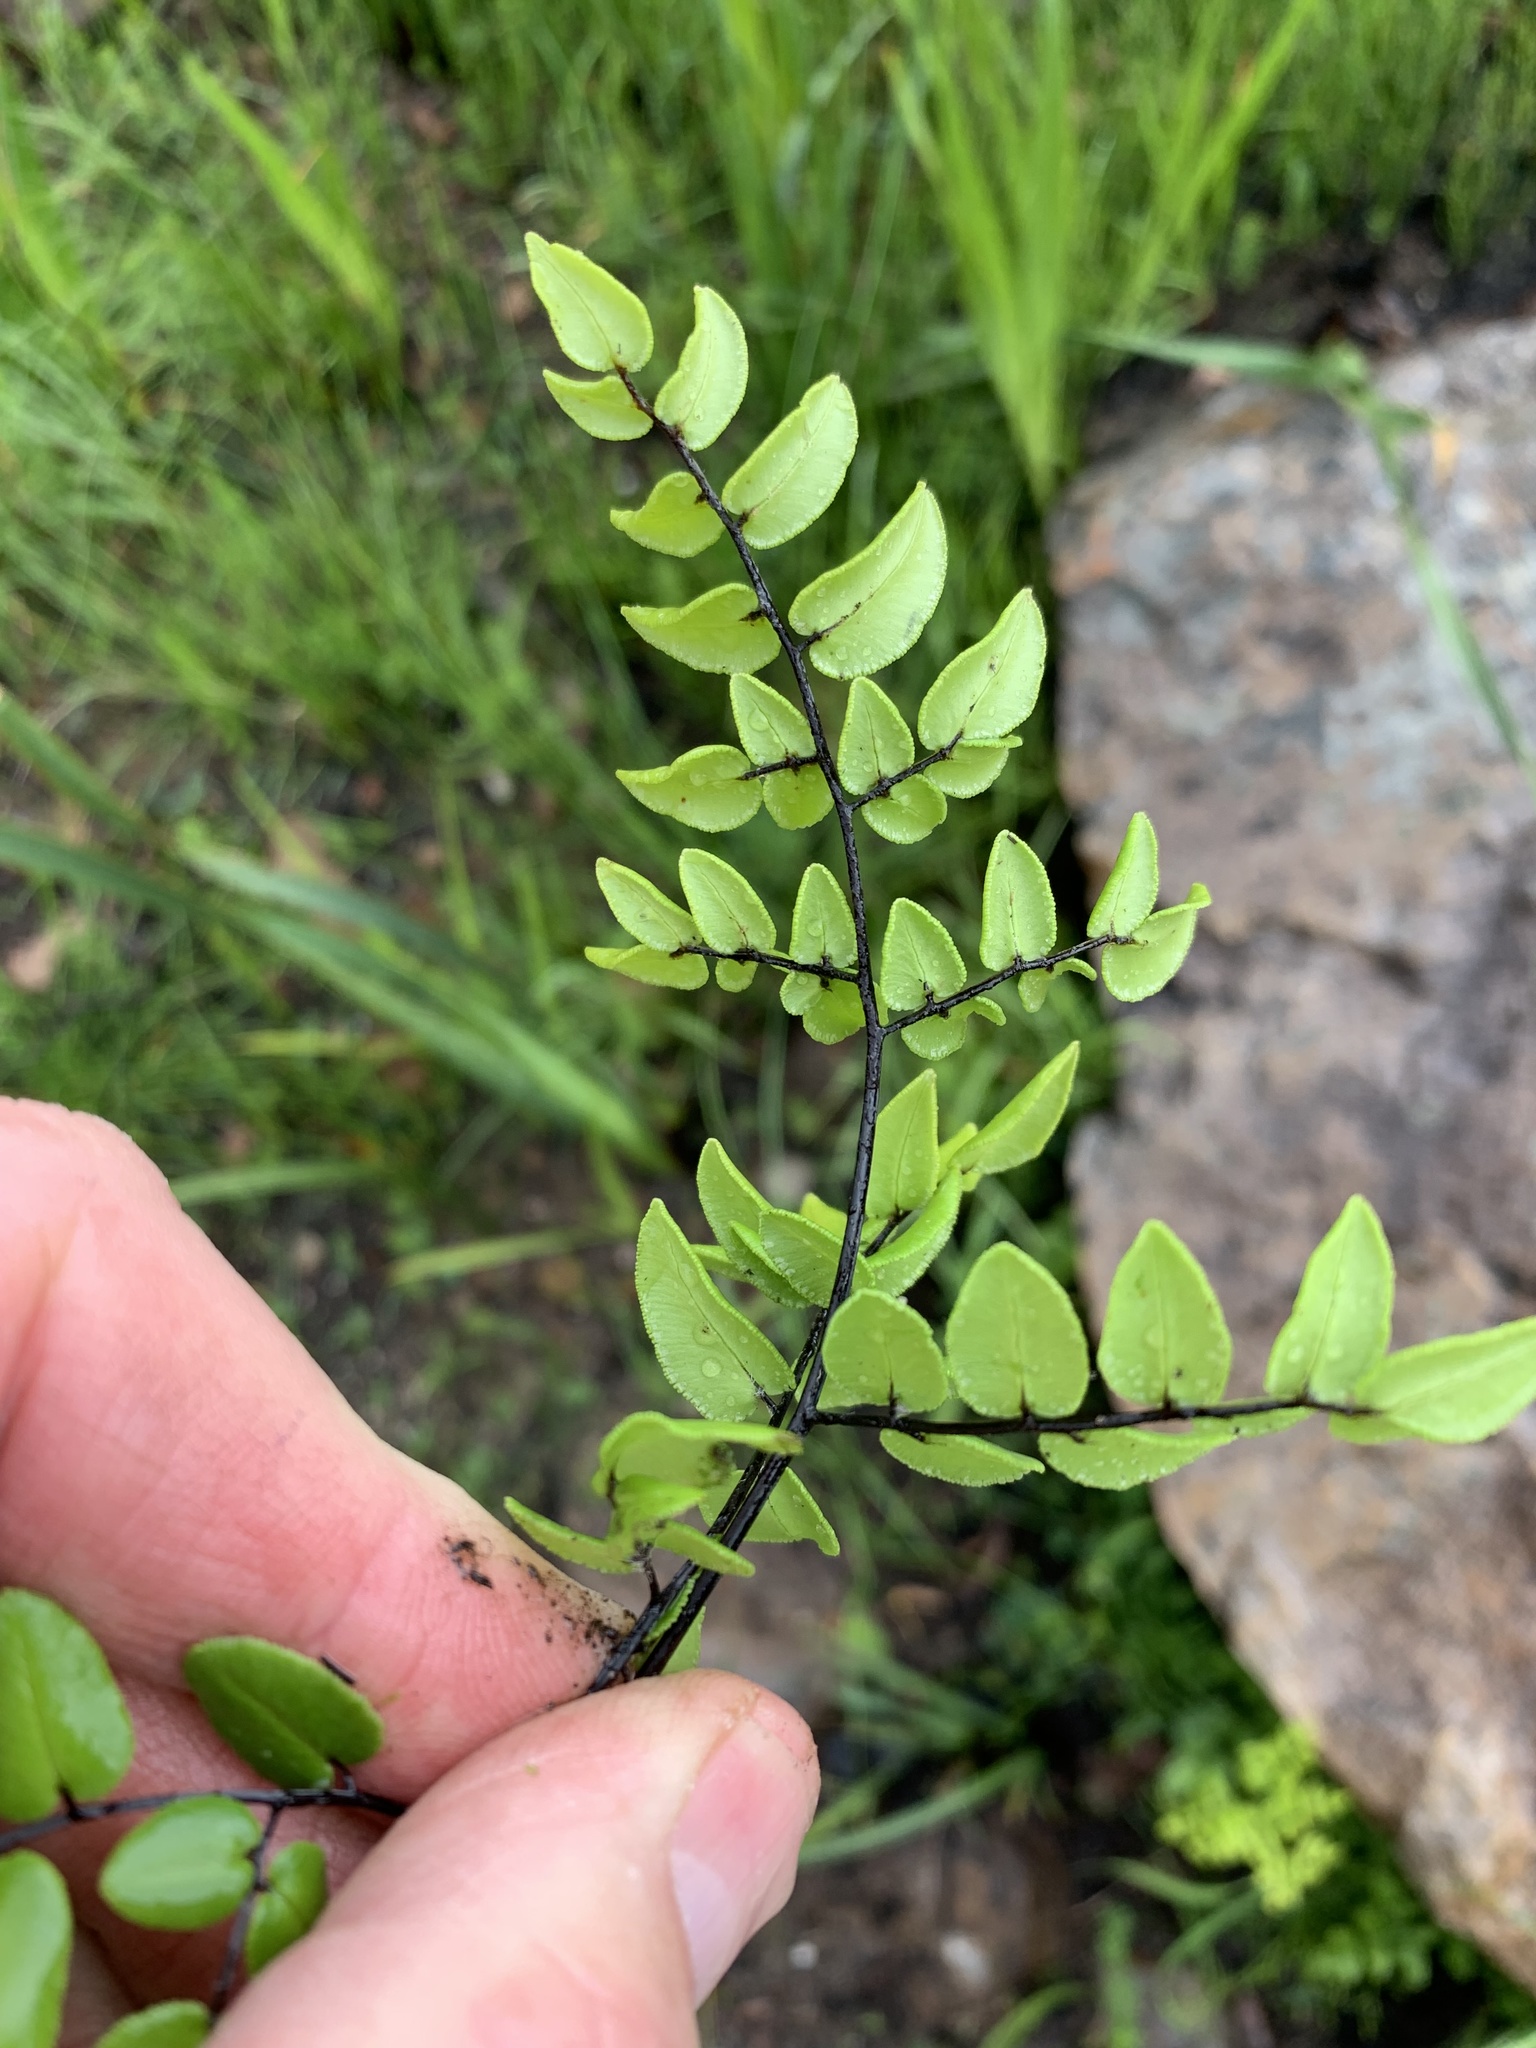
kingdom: Plantae
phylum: Tracheophyta
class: Polypodiopsida
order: Polypodiales
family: Pteridaceae
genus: Pellaea
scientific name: Pellaea pteroides
